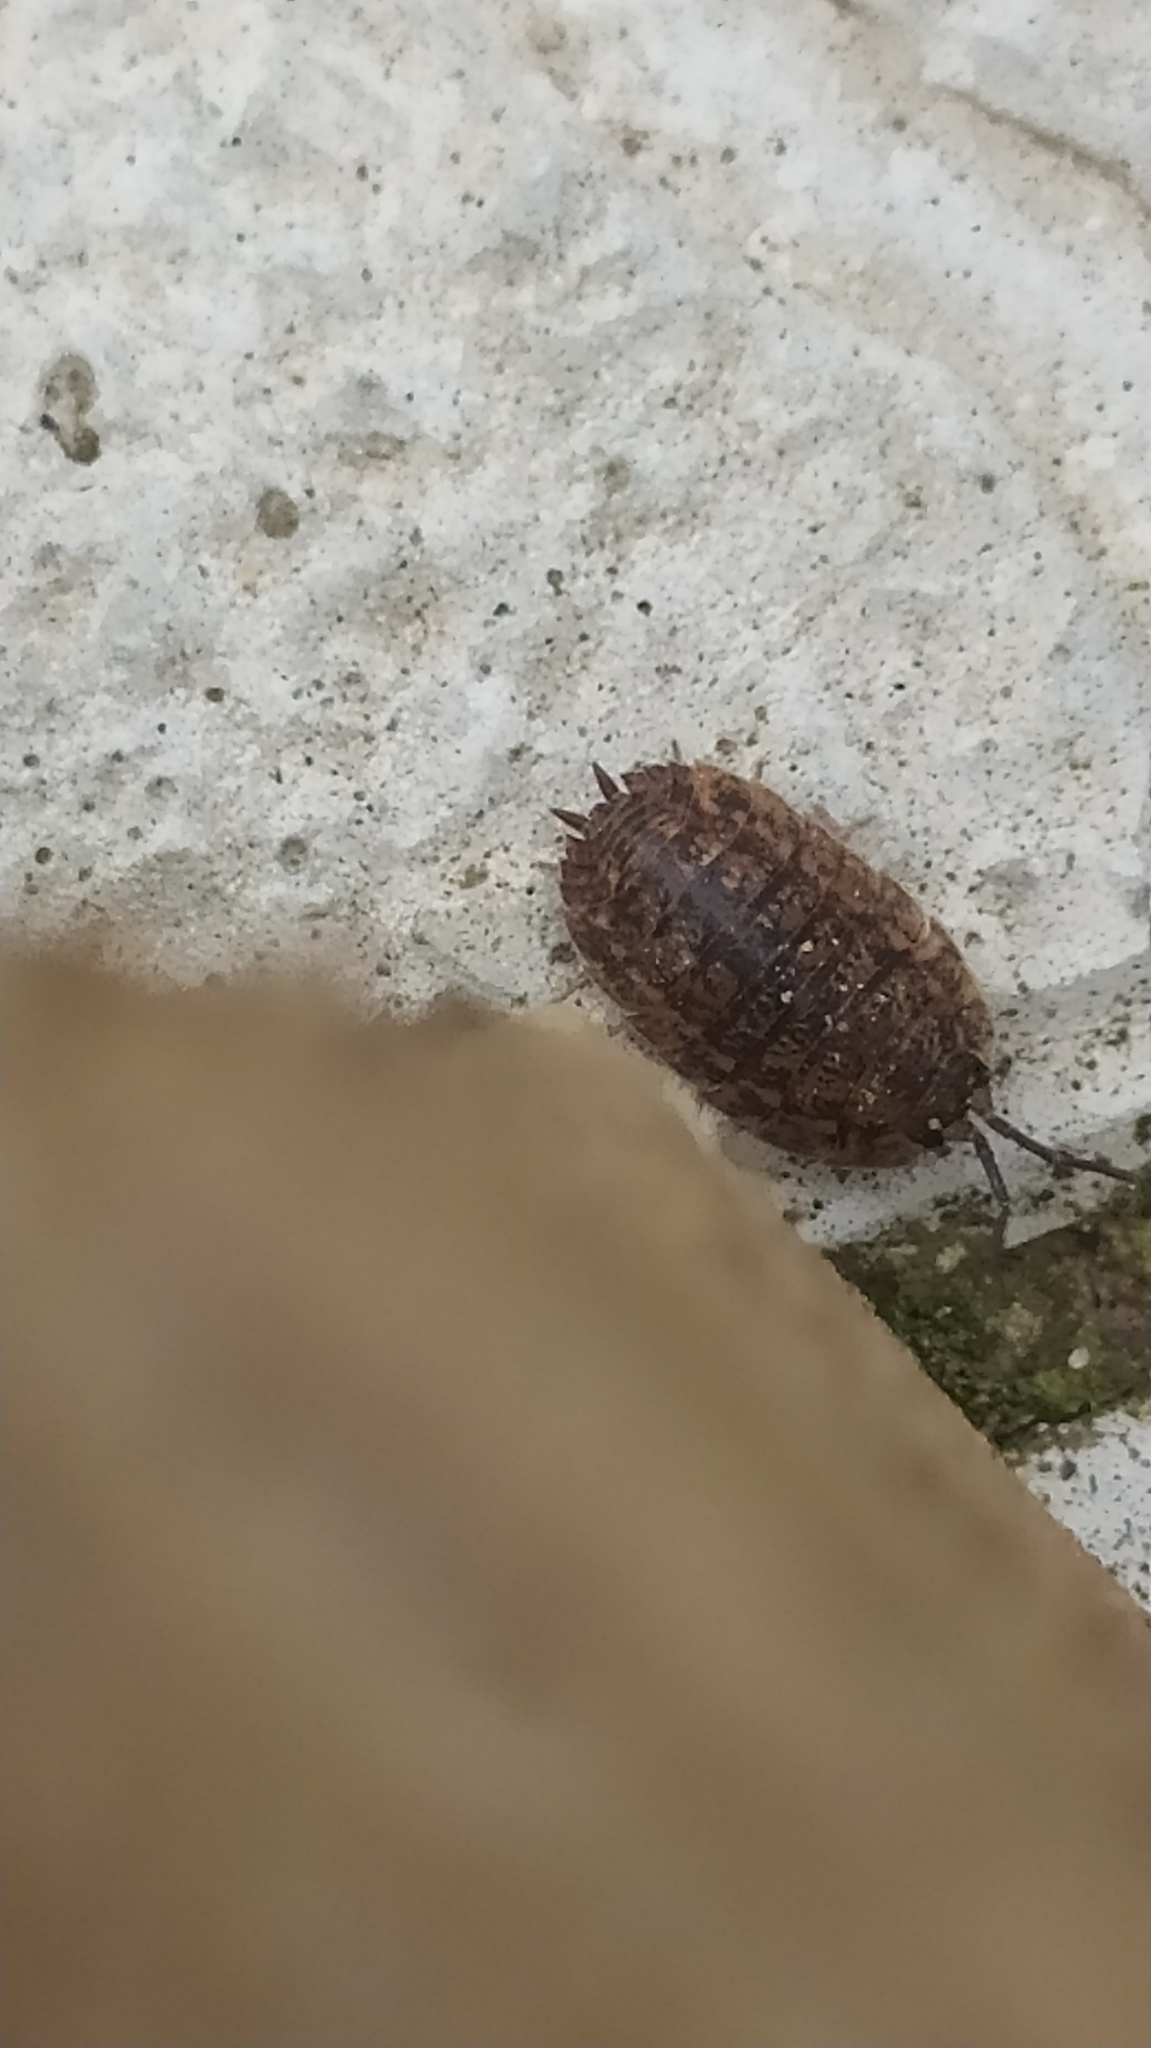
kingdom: Animalia
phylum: Arthropoda
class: Malacostraca
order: Isopoda
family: Trachelipodidae
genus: Trachelipus
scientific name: Trachelipus rathkii
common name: Isopod
